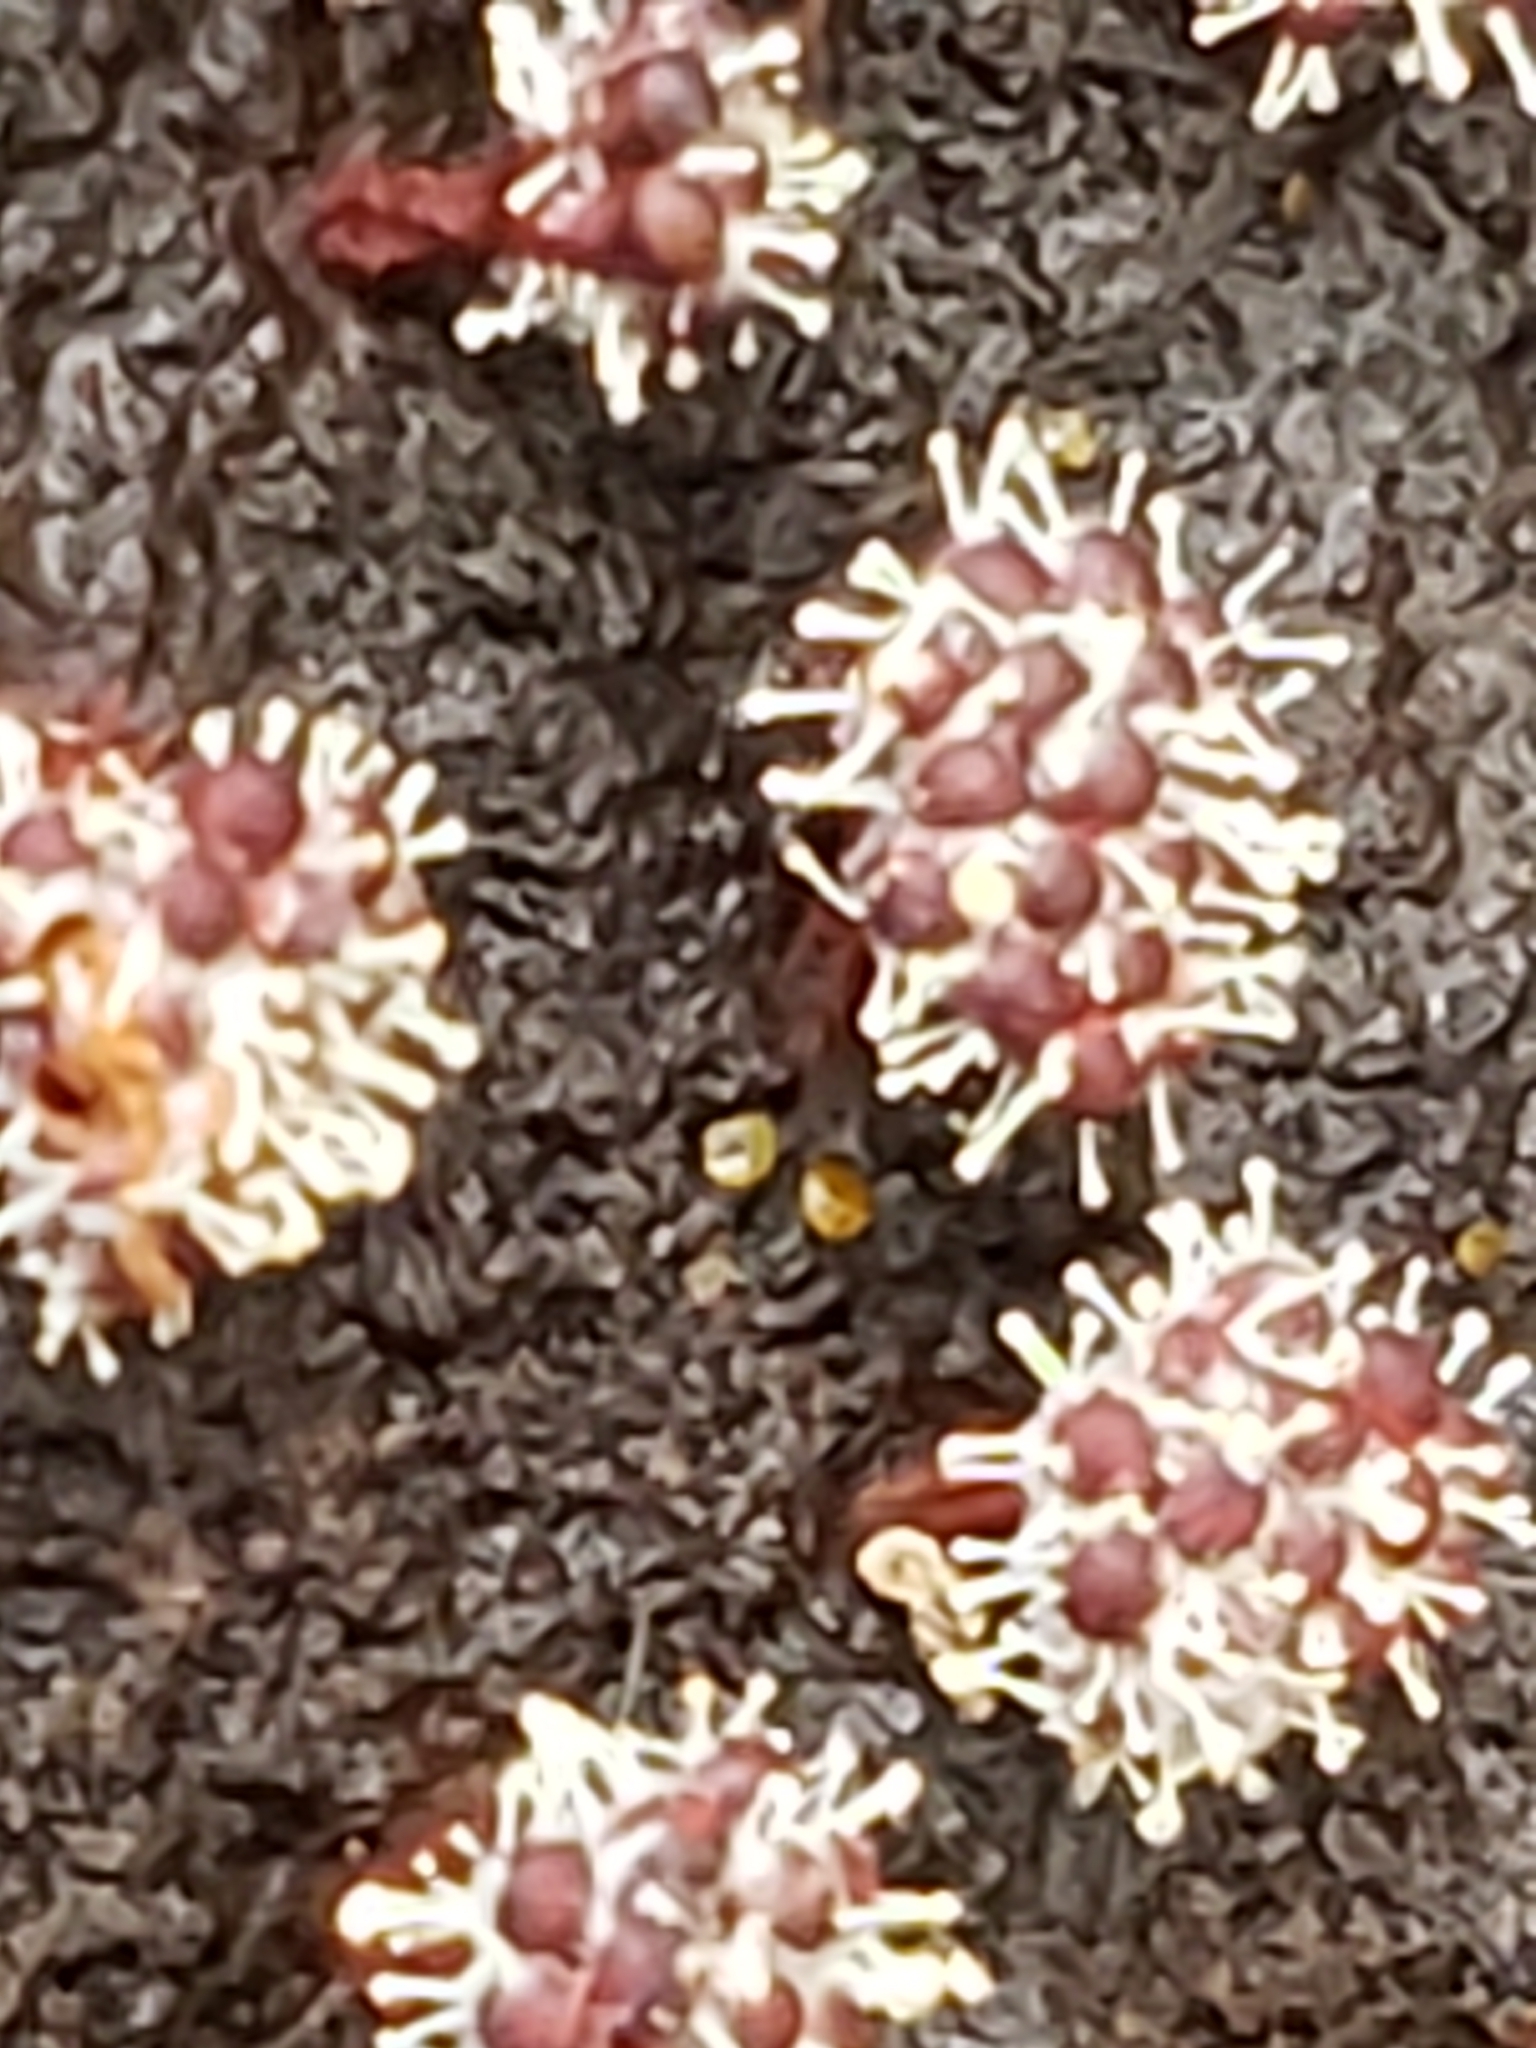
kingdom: Fungi
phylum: Ascomycota
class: Sordariomycetes
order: Hypocreales
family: Ophiocordycipitaceae
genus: Polycephalomyces
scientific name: Polycephalomyces tomentosus
